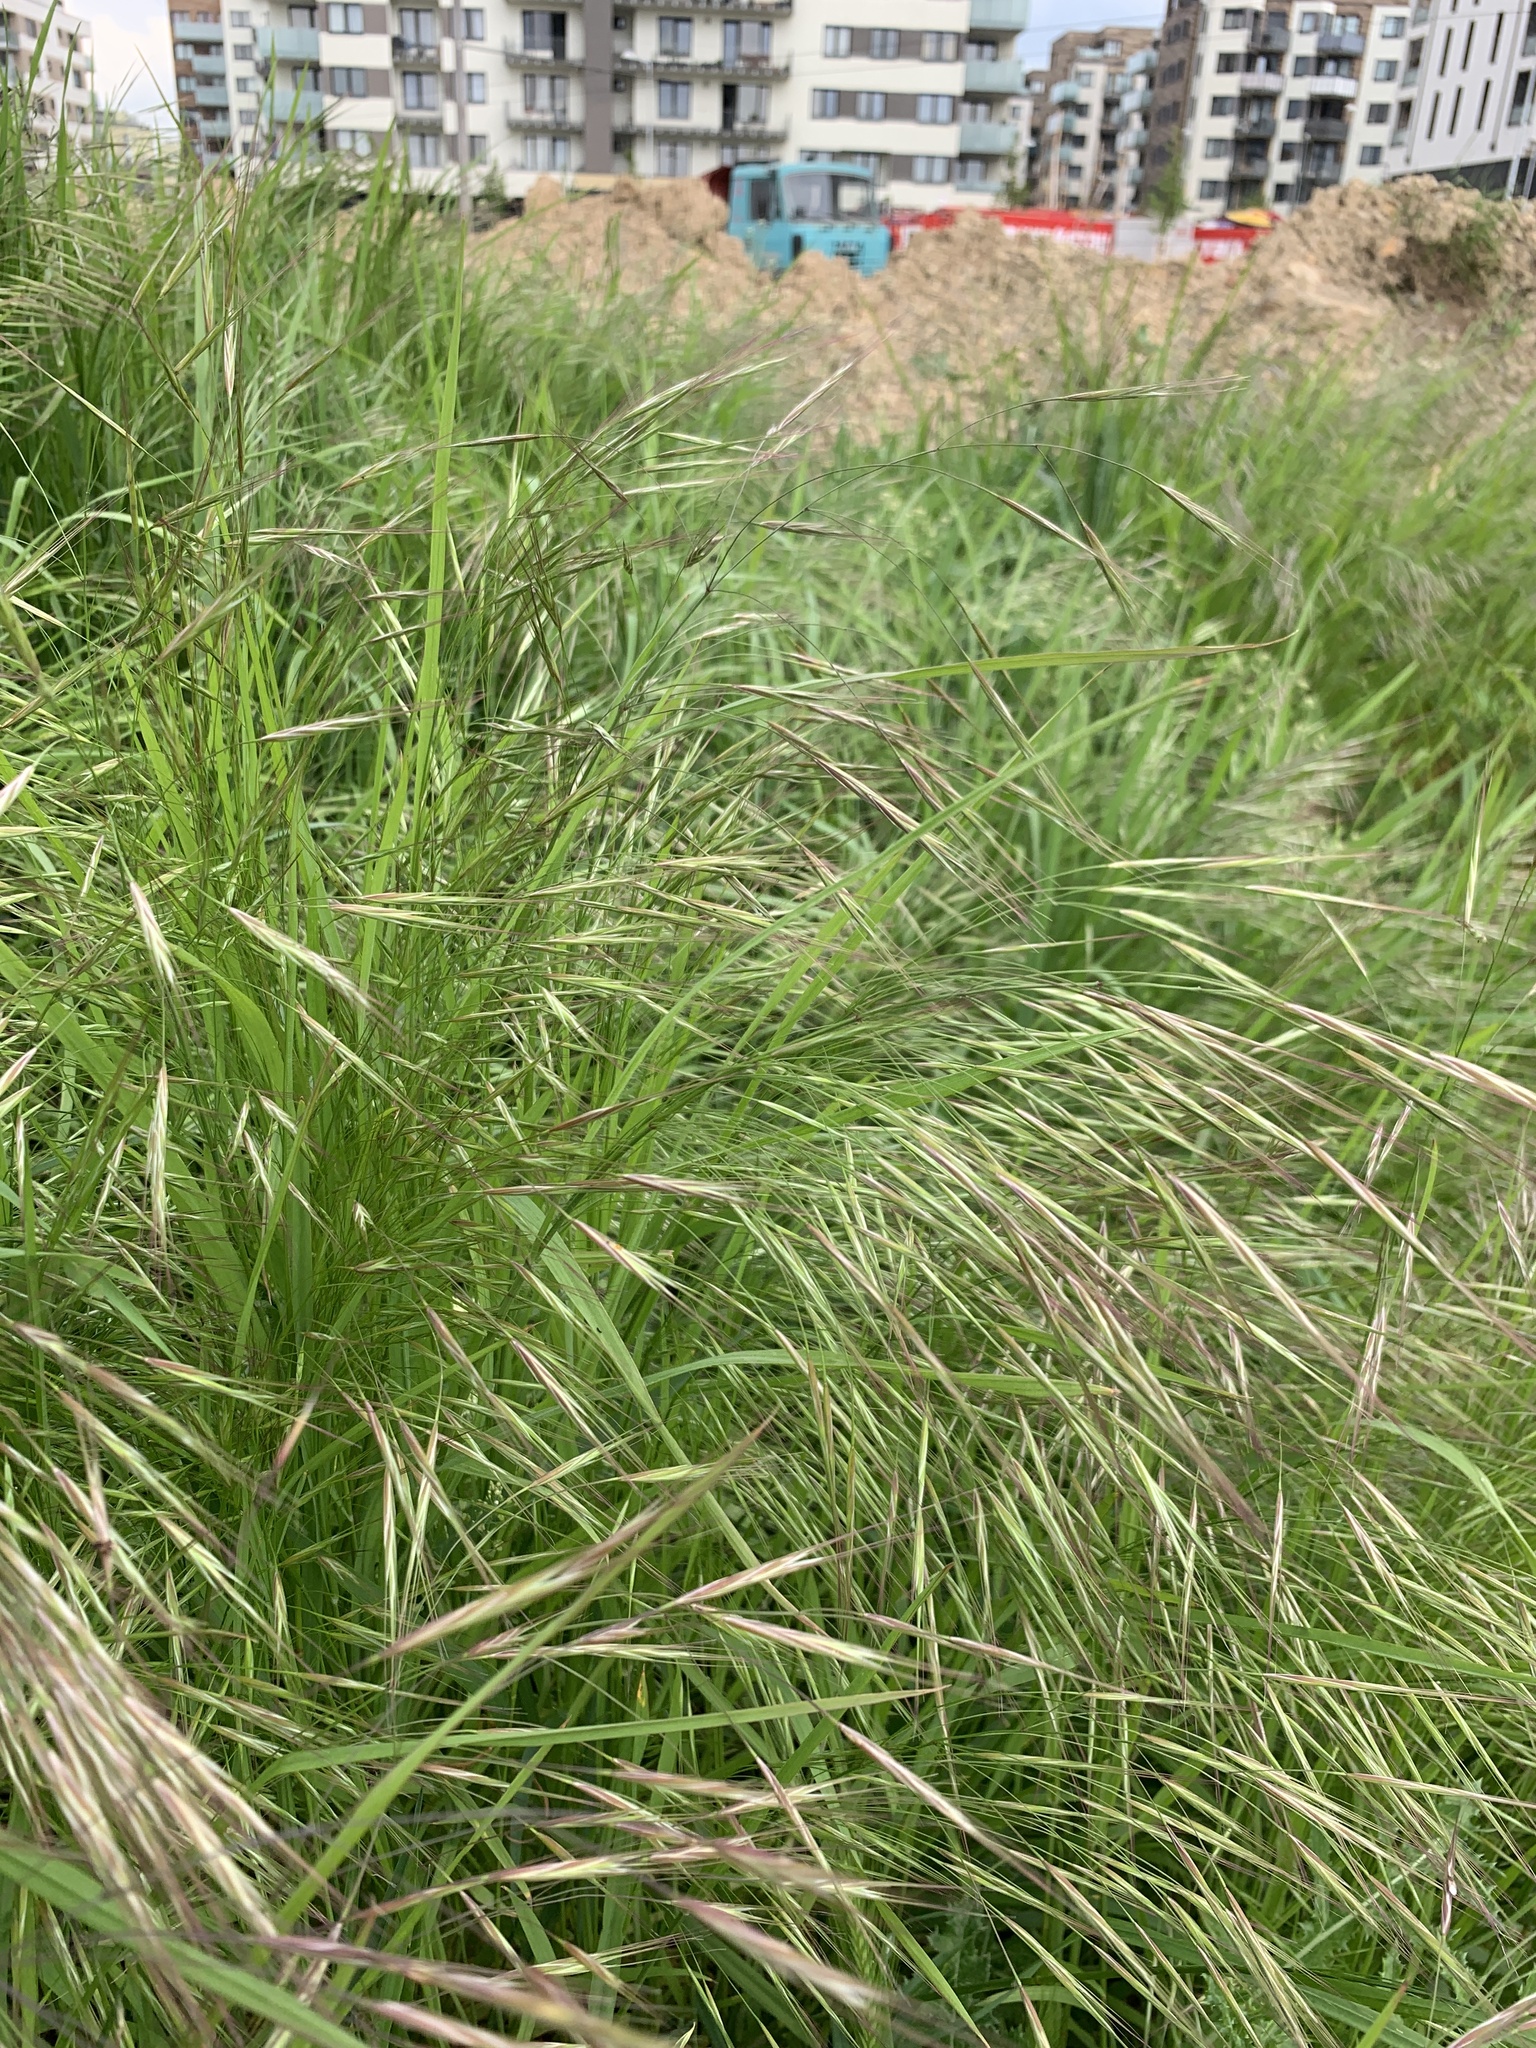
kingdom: Plantae
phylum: Tracheophyta
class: Liliopsida
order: Poales
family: Poaceae
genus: Bromus
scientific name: Bromus sterilis
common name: Poverty brome
